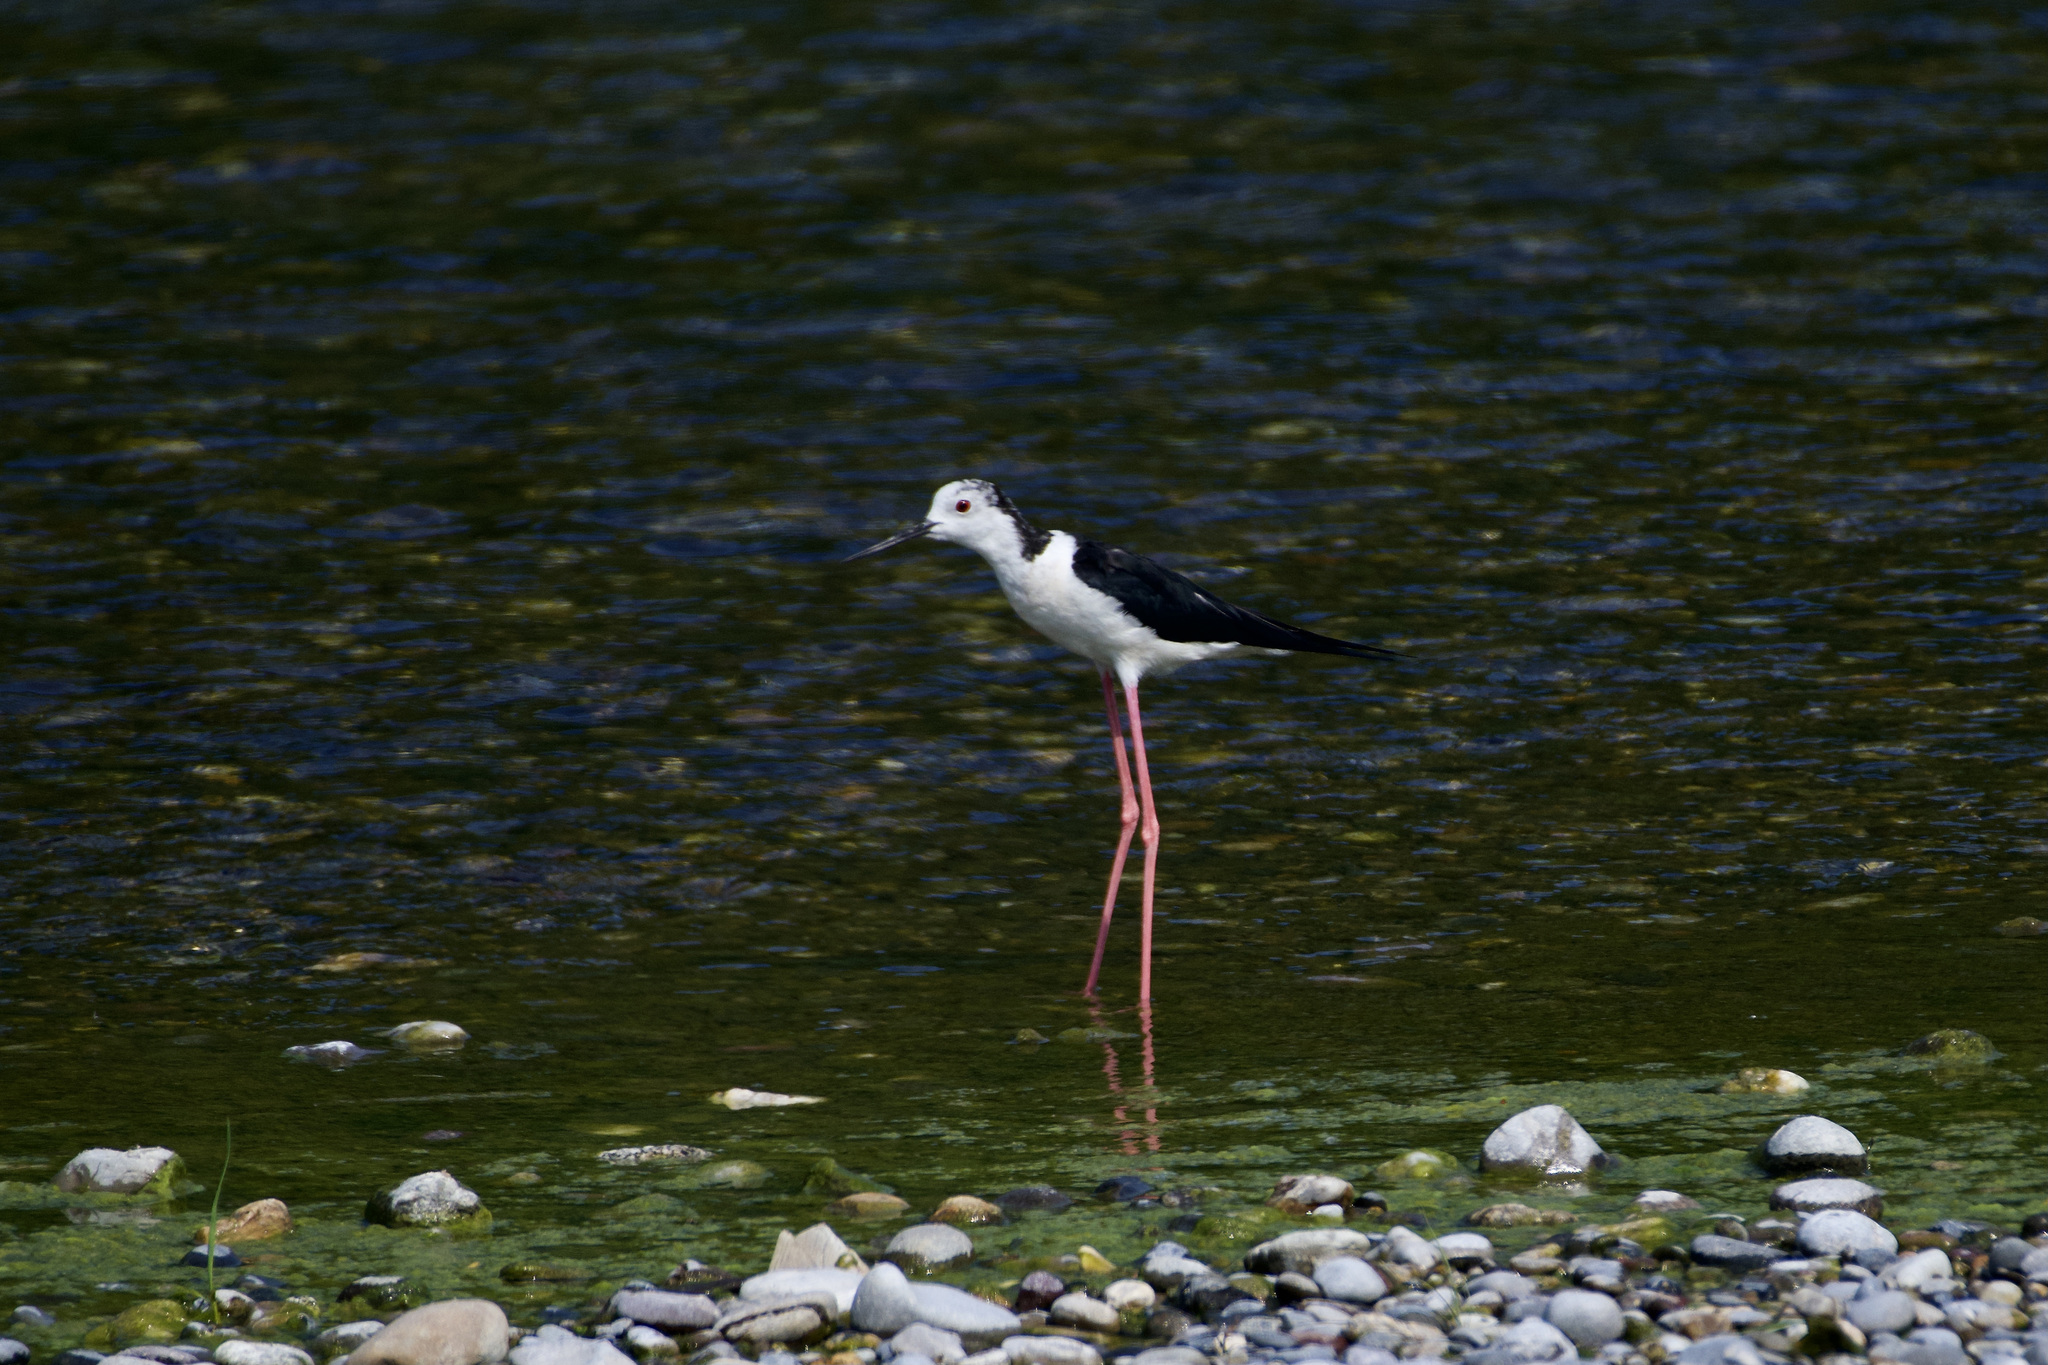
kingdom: Animalia
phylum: Chordata
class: Aves
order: Charadriiformes
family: Recurvirostridae
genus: Himantopus
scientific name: Himantopus himantopus
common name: Black-winged stilt
